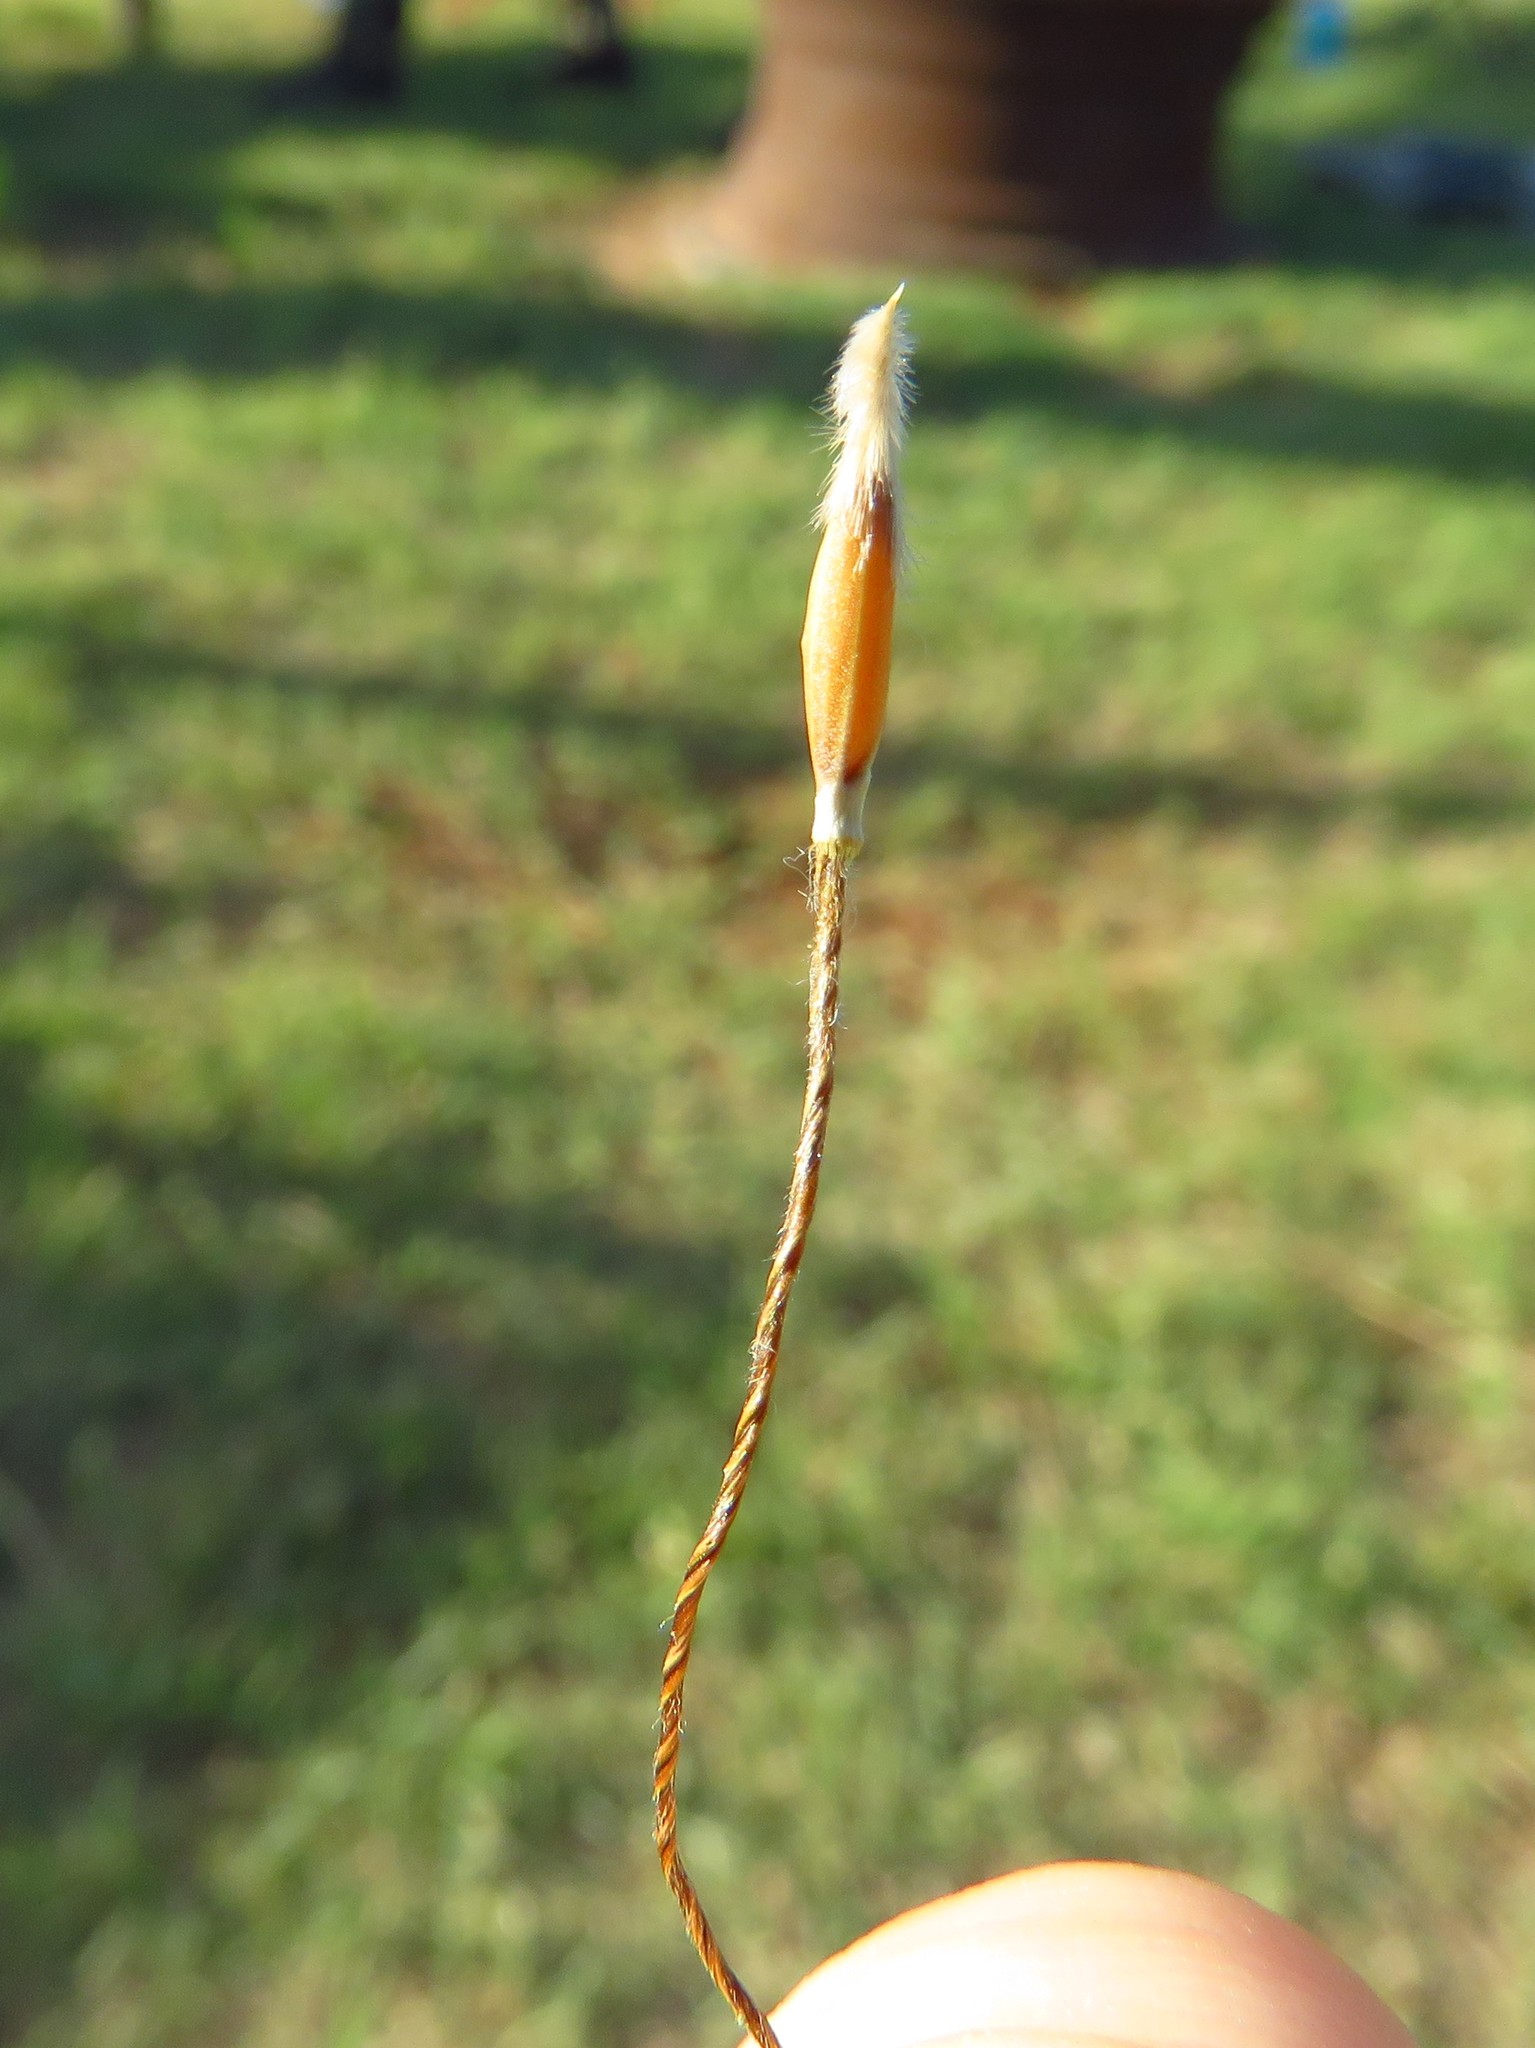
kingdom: Plantae
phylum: Tracheophyta
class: Liliopsida
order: Poales
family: Poaceae
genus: Nassella
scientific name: Nassella leucotricha
